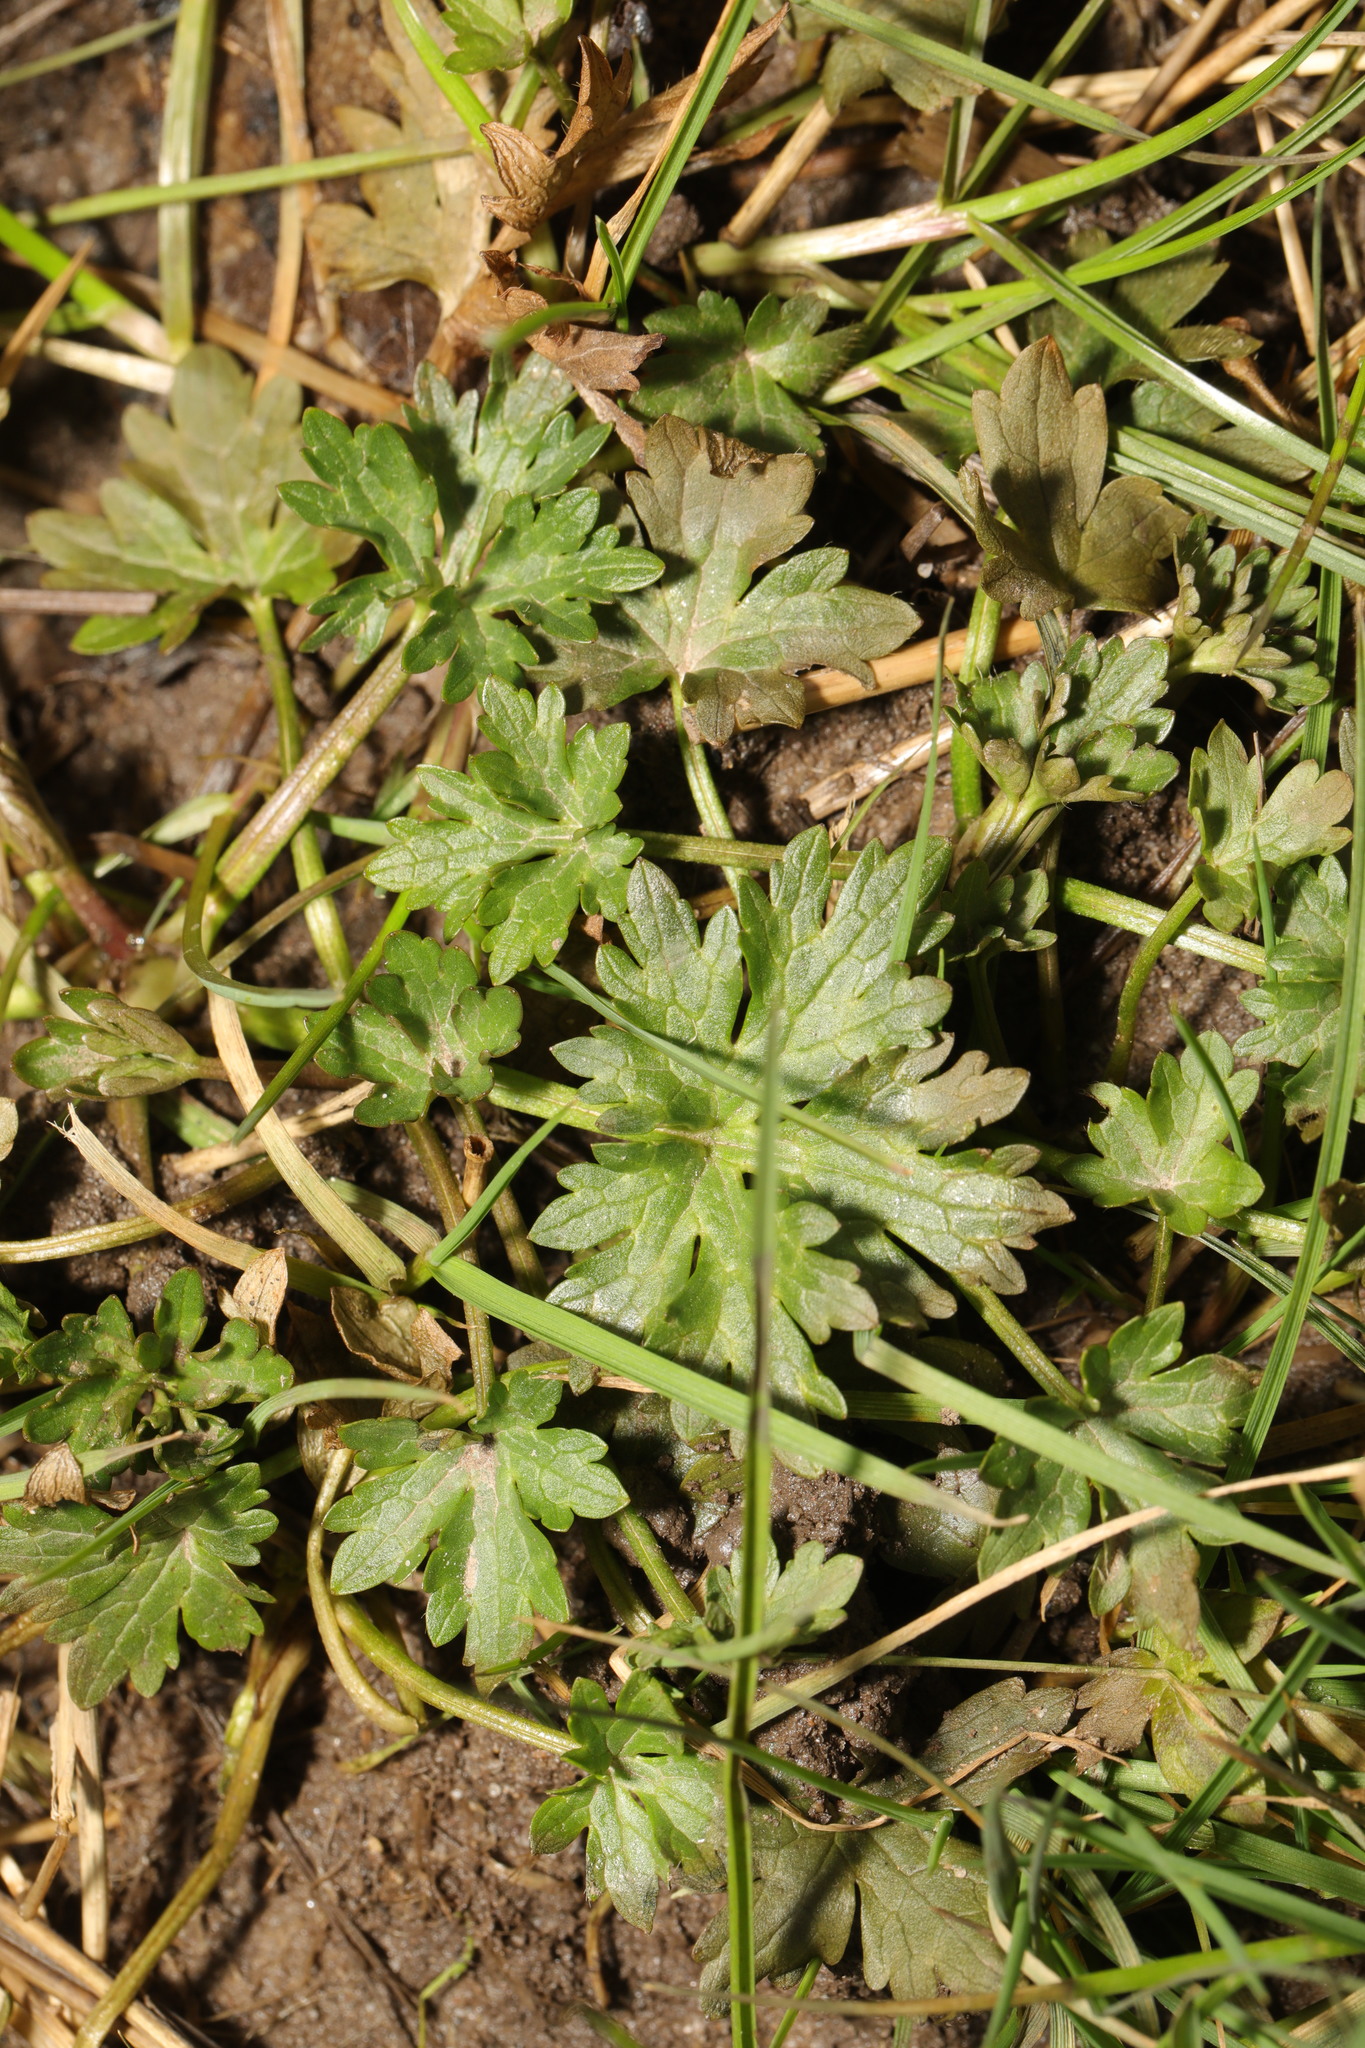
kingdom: Plantae
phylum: Tracheophyta
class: Magnoliopsida
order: Ranunculales
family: Ranunculaceae
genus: Ranunculus
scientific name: Ranunculus repens
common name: Creeping buttercup
